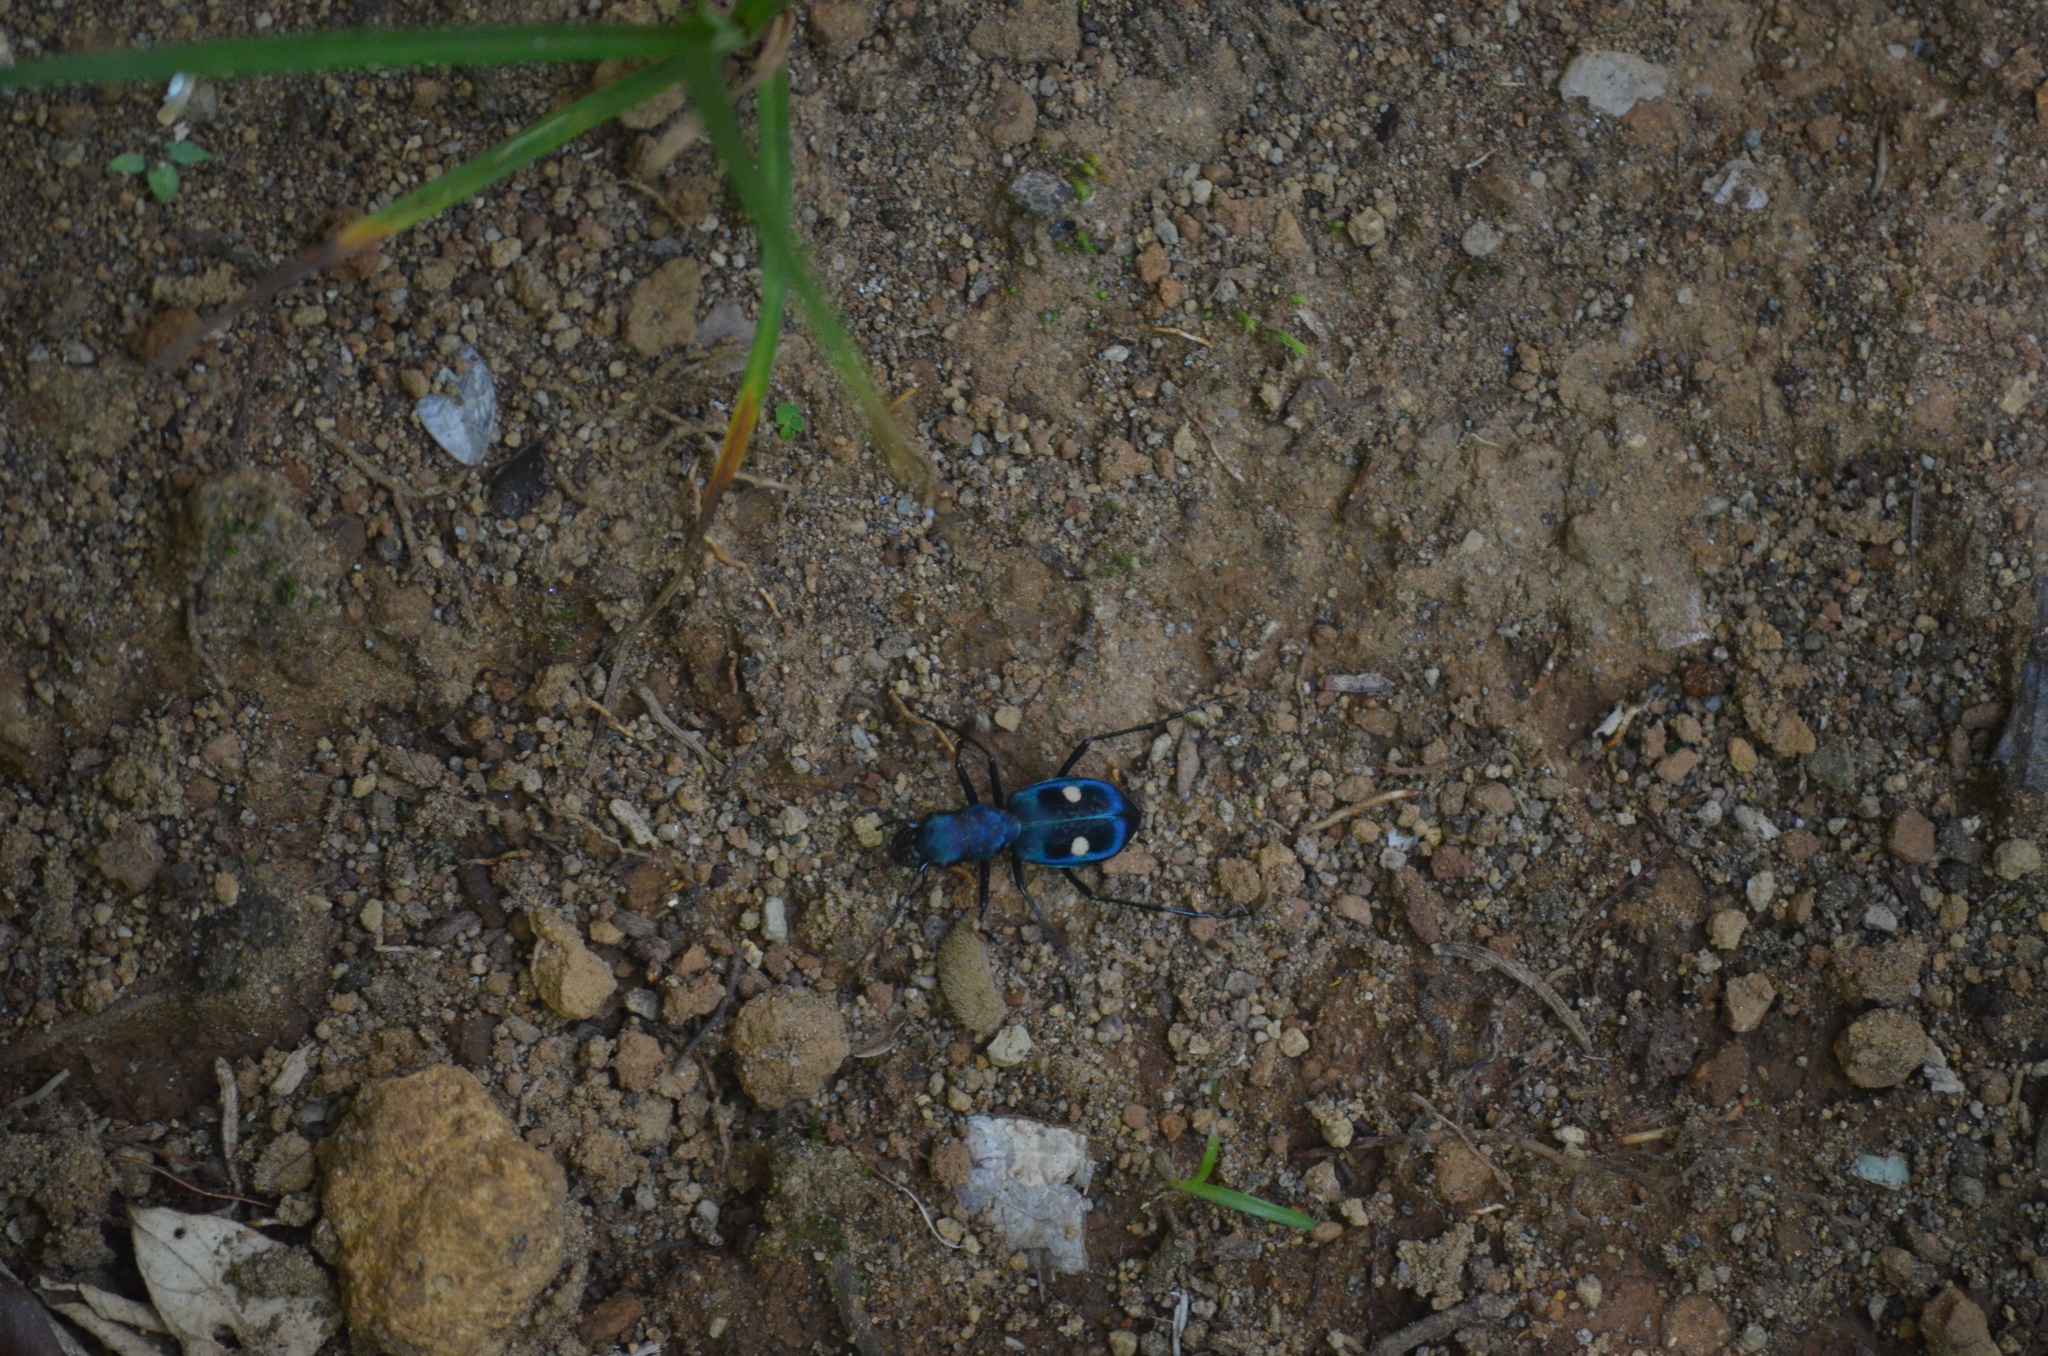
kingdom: Animalia
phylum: Arthropoda
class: Insecta
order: Coleoptera
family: Carabidae
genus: Pseudoxycheila
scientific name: Pseudoxycheila tarsalis
